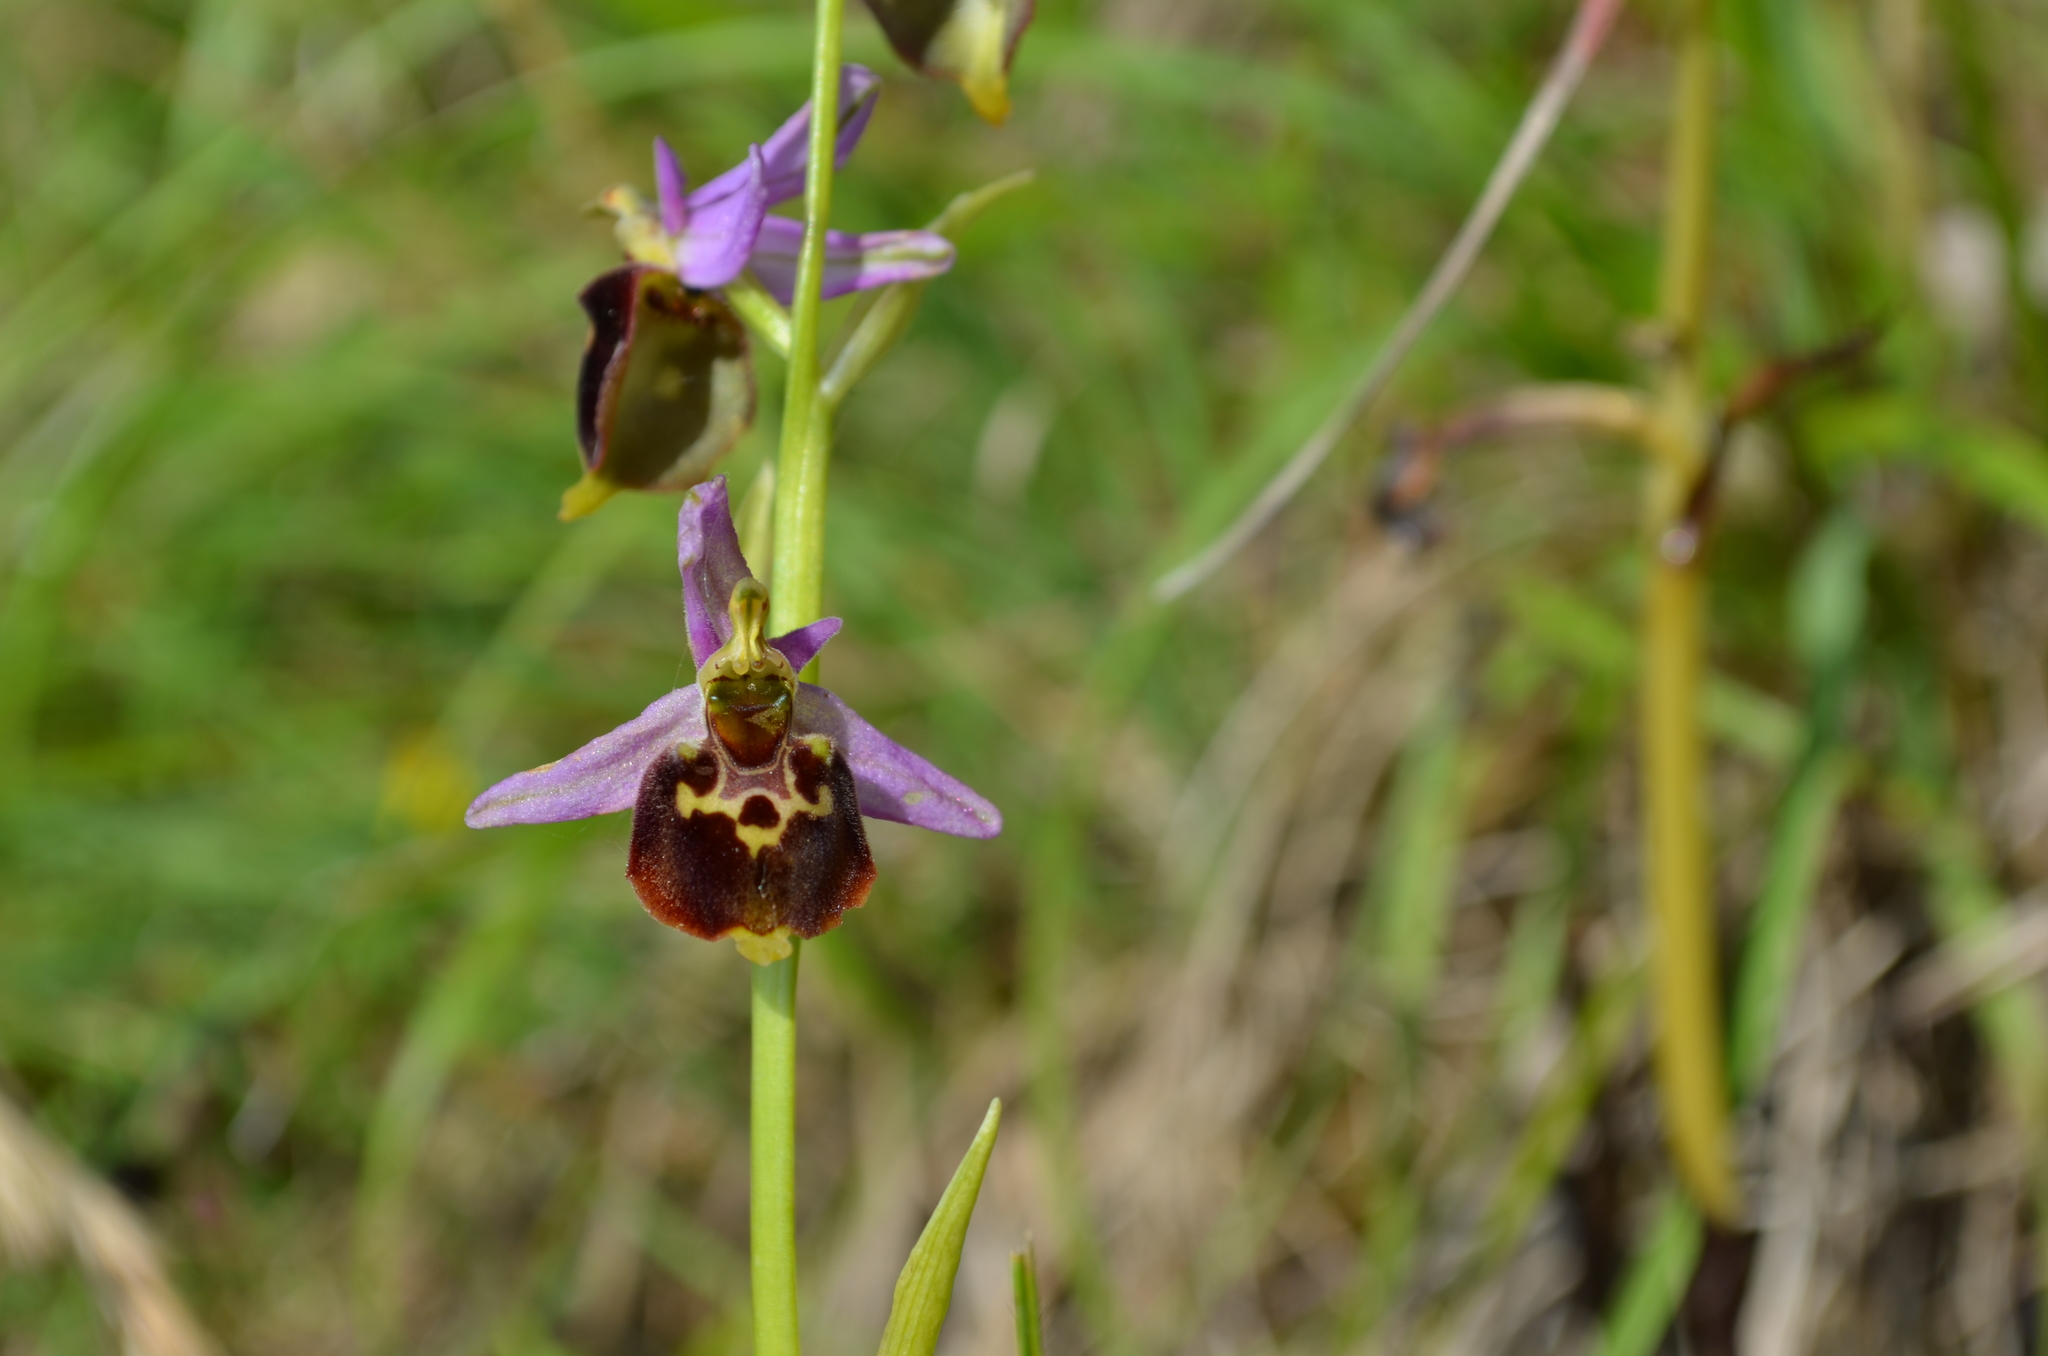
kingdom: Plantae
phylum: Tracheophyta
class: Liliopsida
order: Asparagales
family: Orchidaceae
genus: Ophrys
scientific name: Ophrys holosericea
